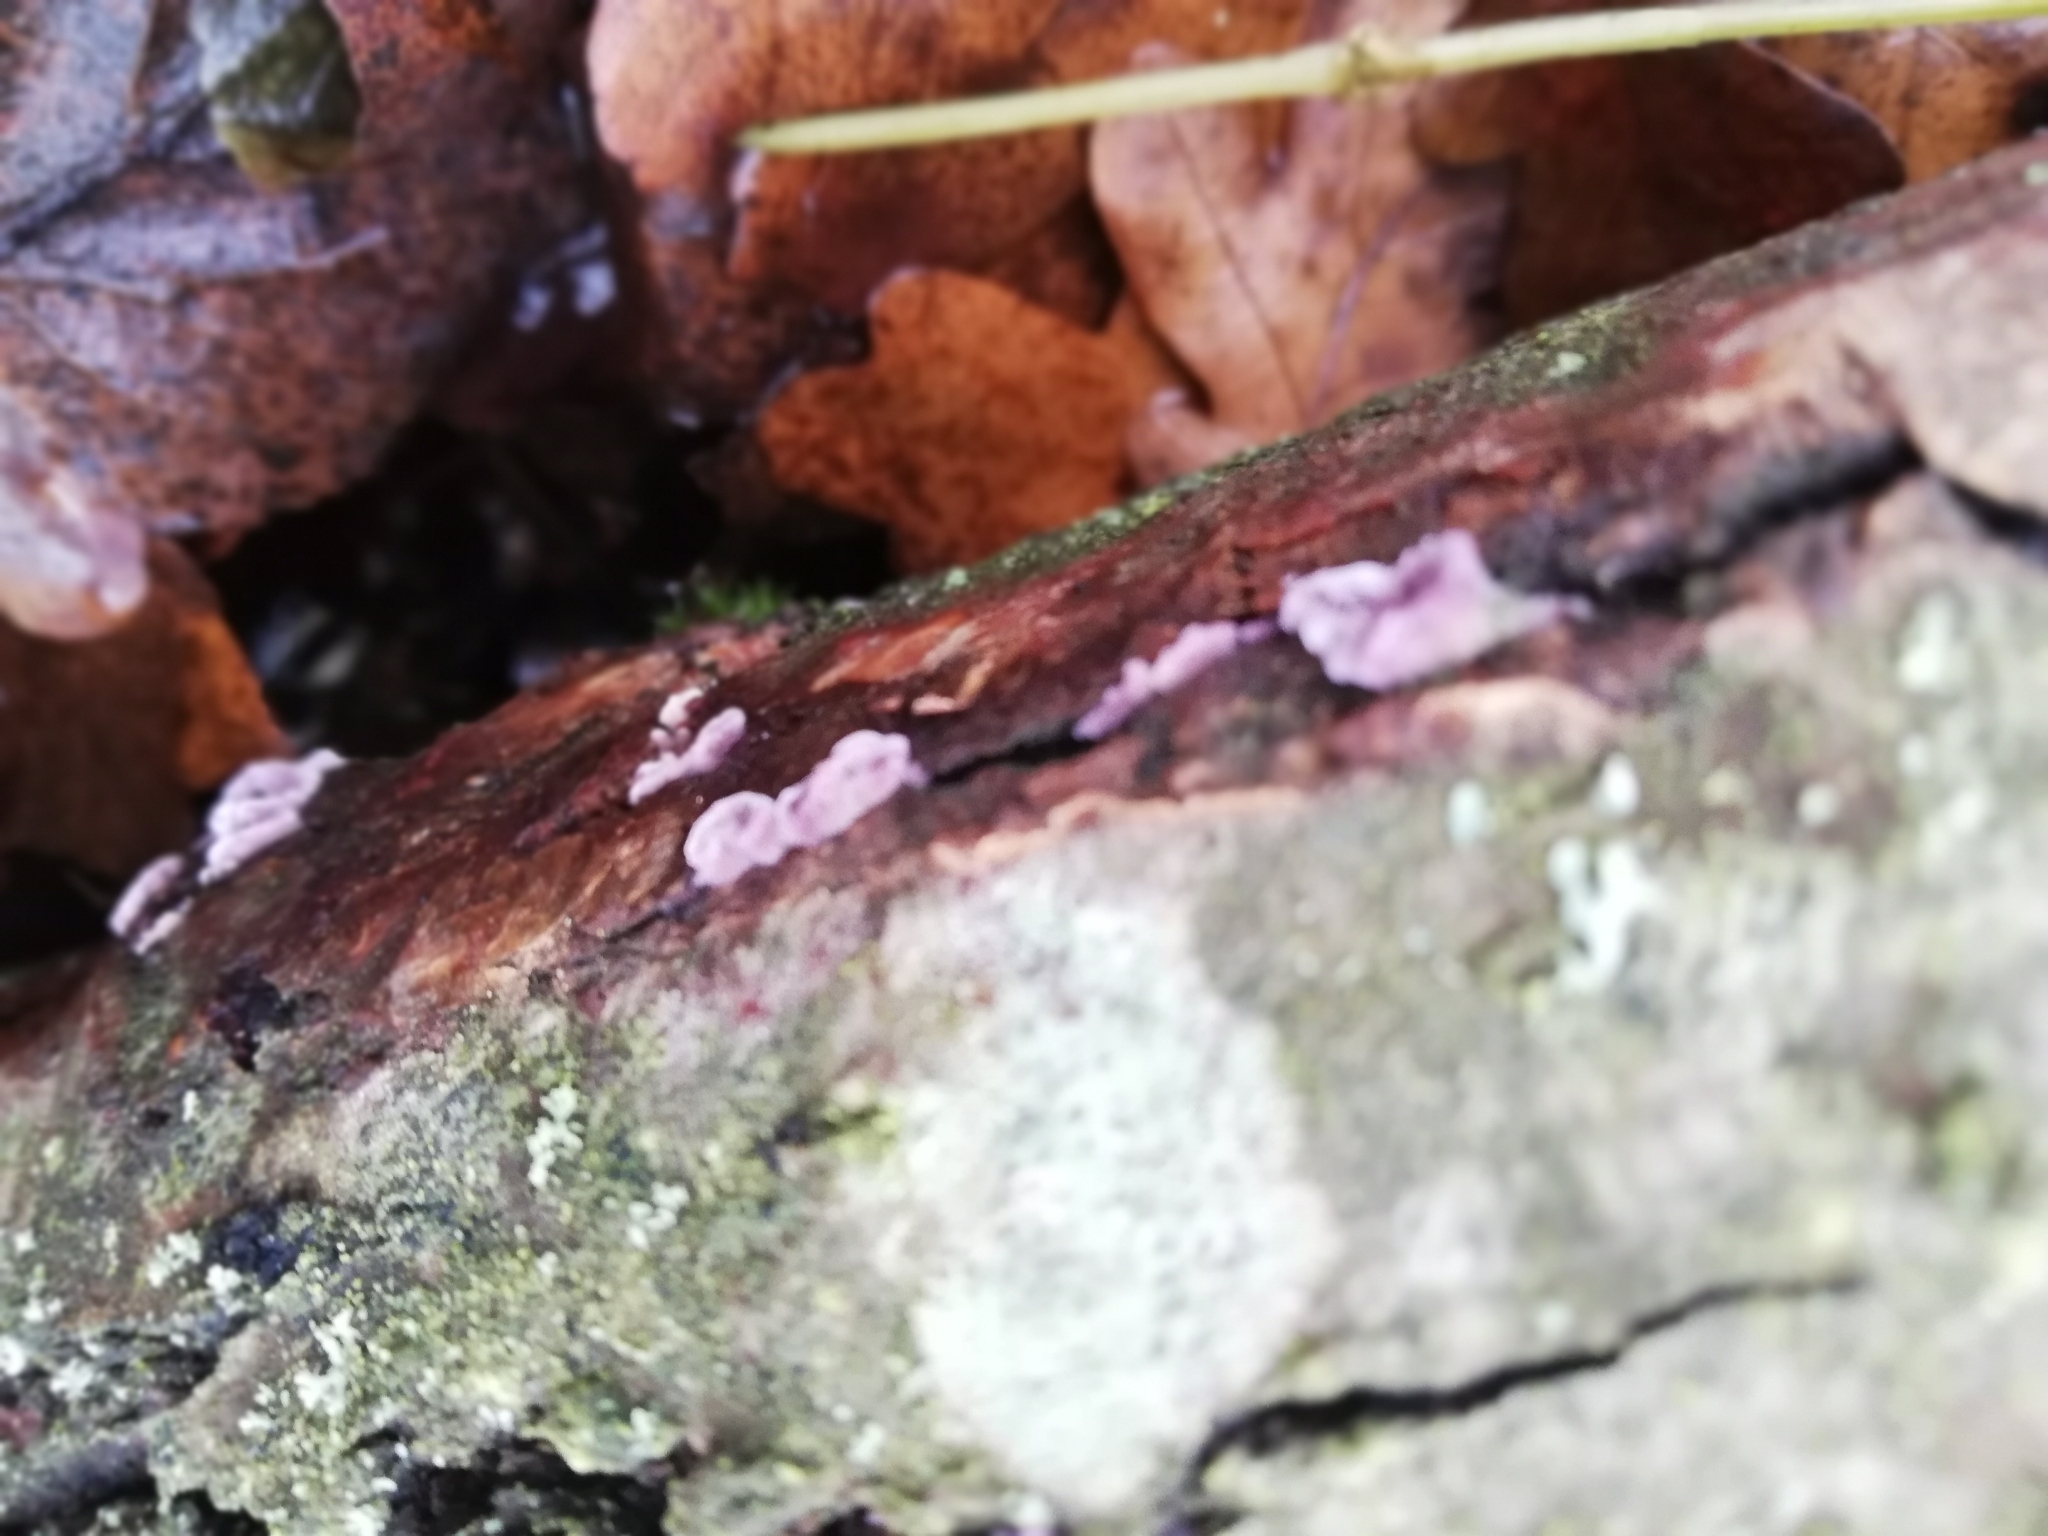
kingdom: Fungi
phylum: Basidiomycota
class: Agaricomycetes
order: Agaricales
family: Cyphellaceae
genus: Chondrostereum
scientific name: Chondrostereum purpureum
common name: Silver leaf disease
